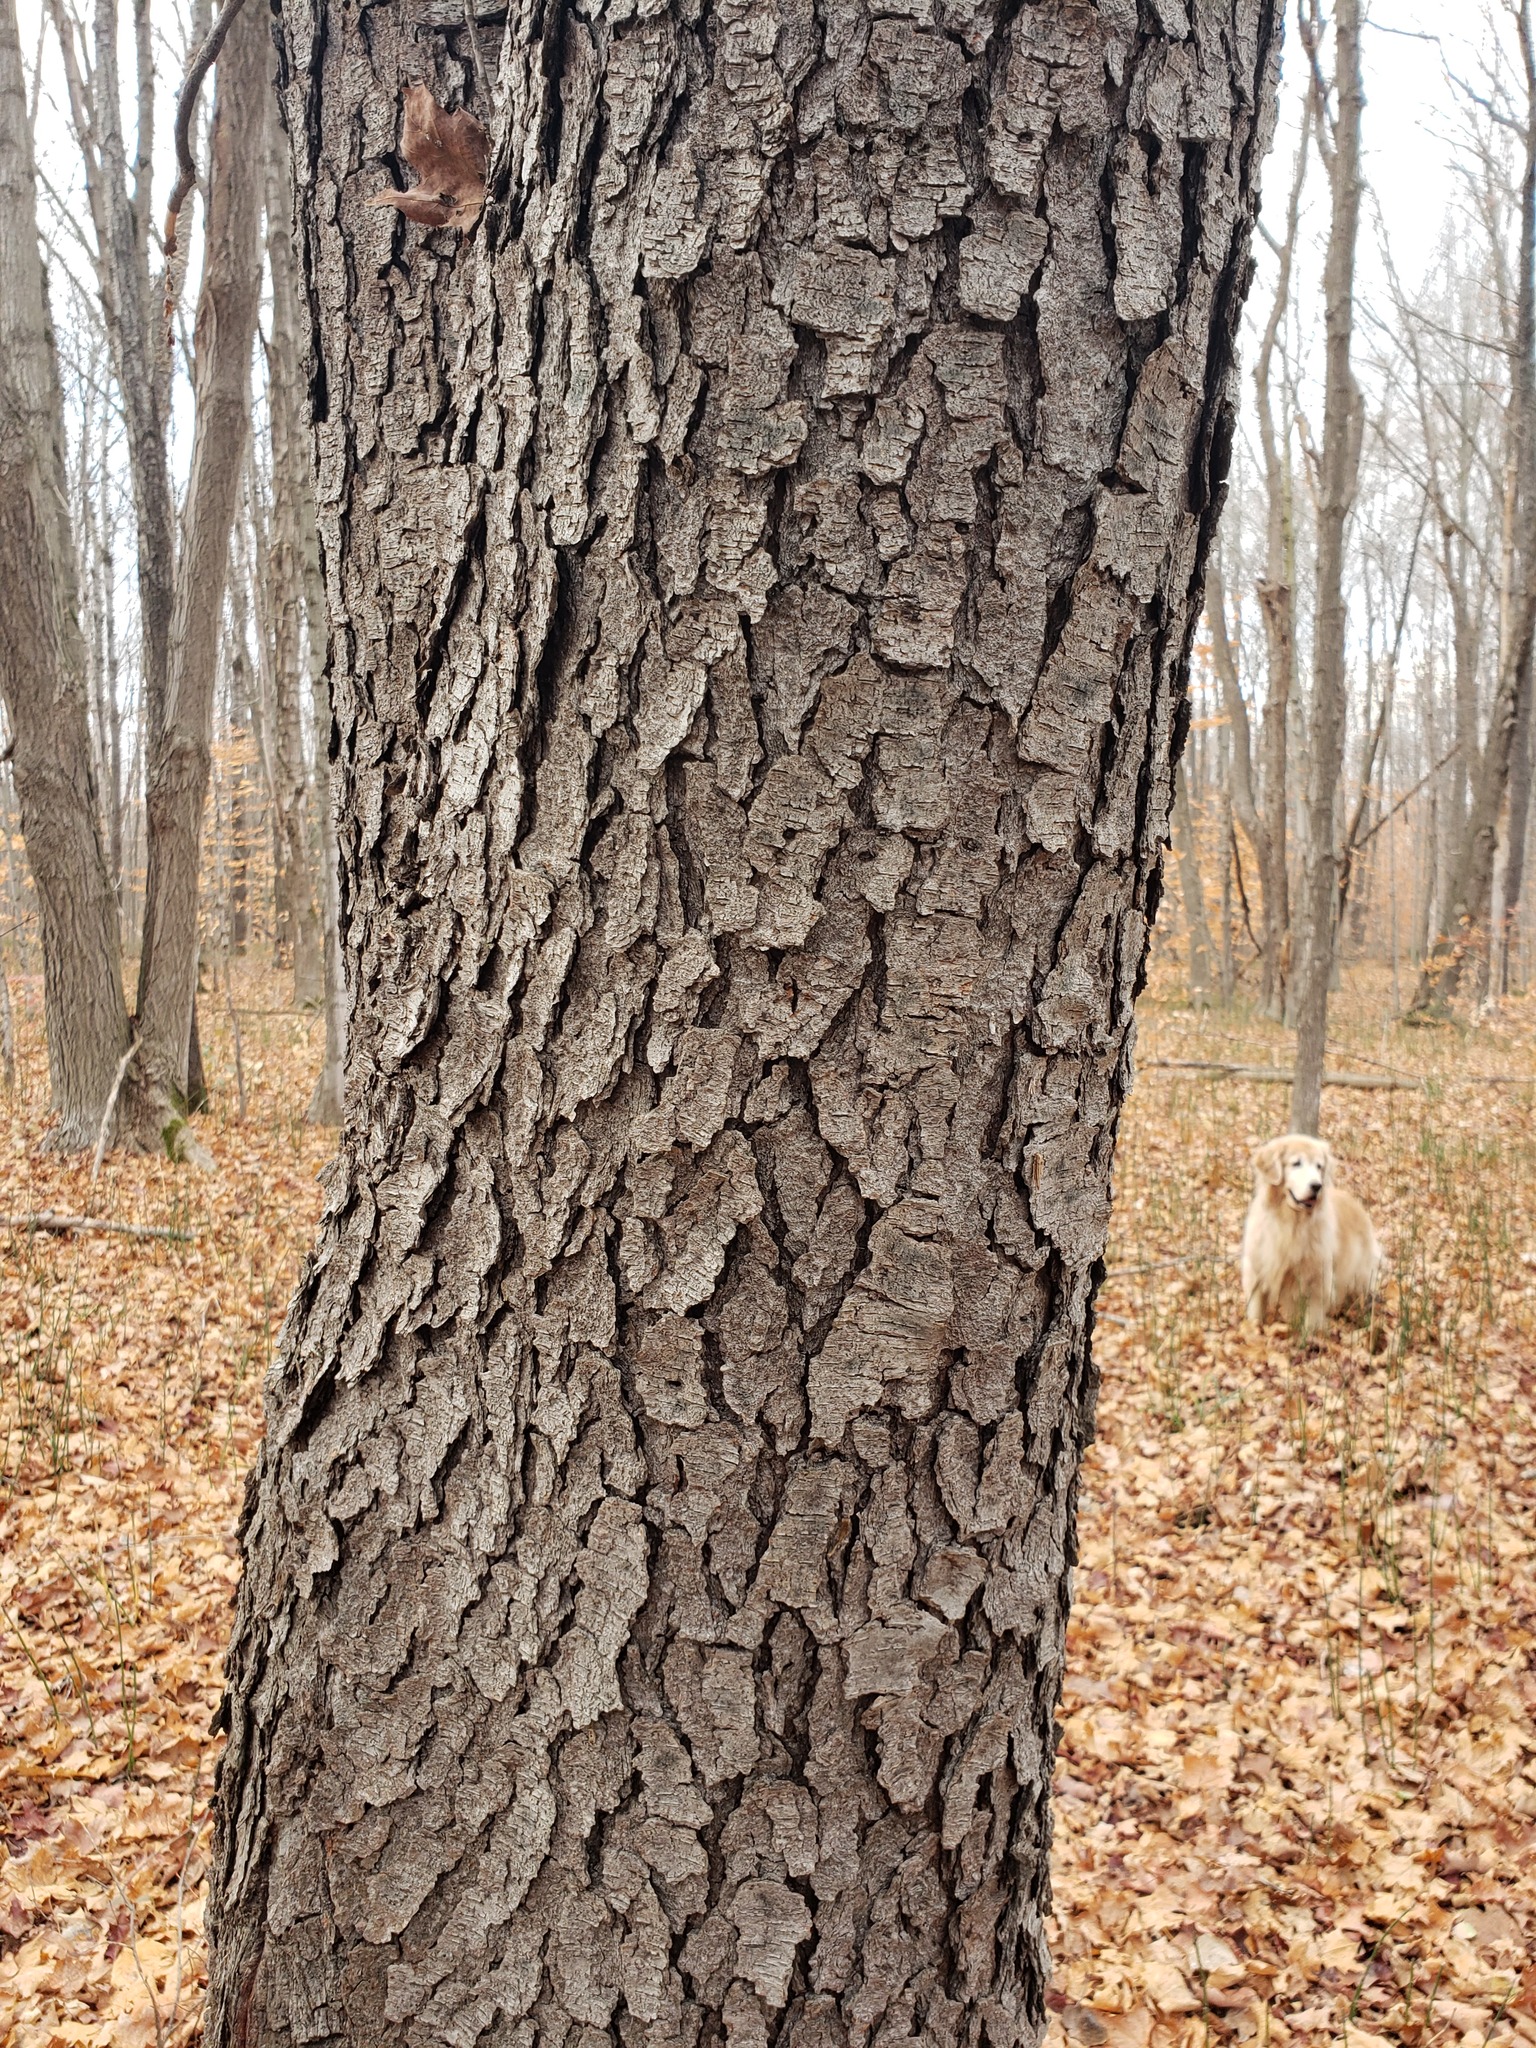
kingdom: Plantae
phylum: Tracheophyta
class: Magnoliopsida
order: Rosales
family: Rosaceae
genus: Prunus
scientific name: Prunus serotina
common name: Black cherry
